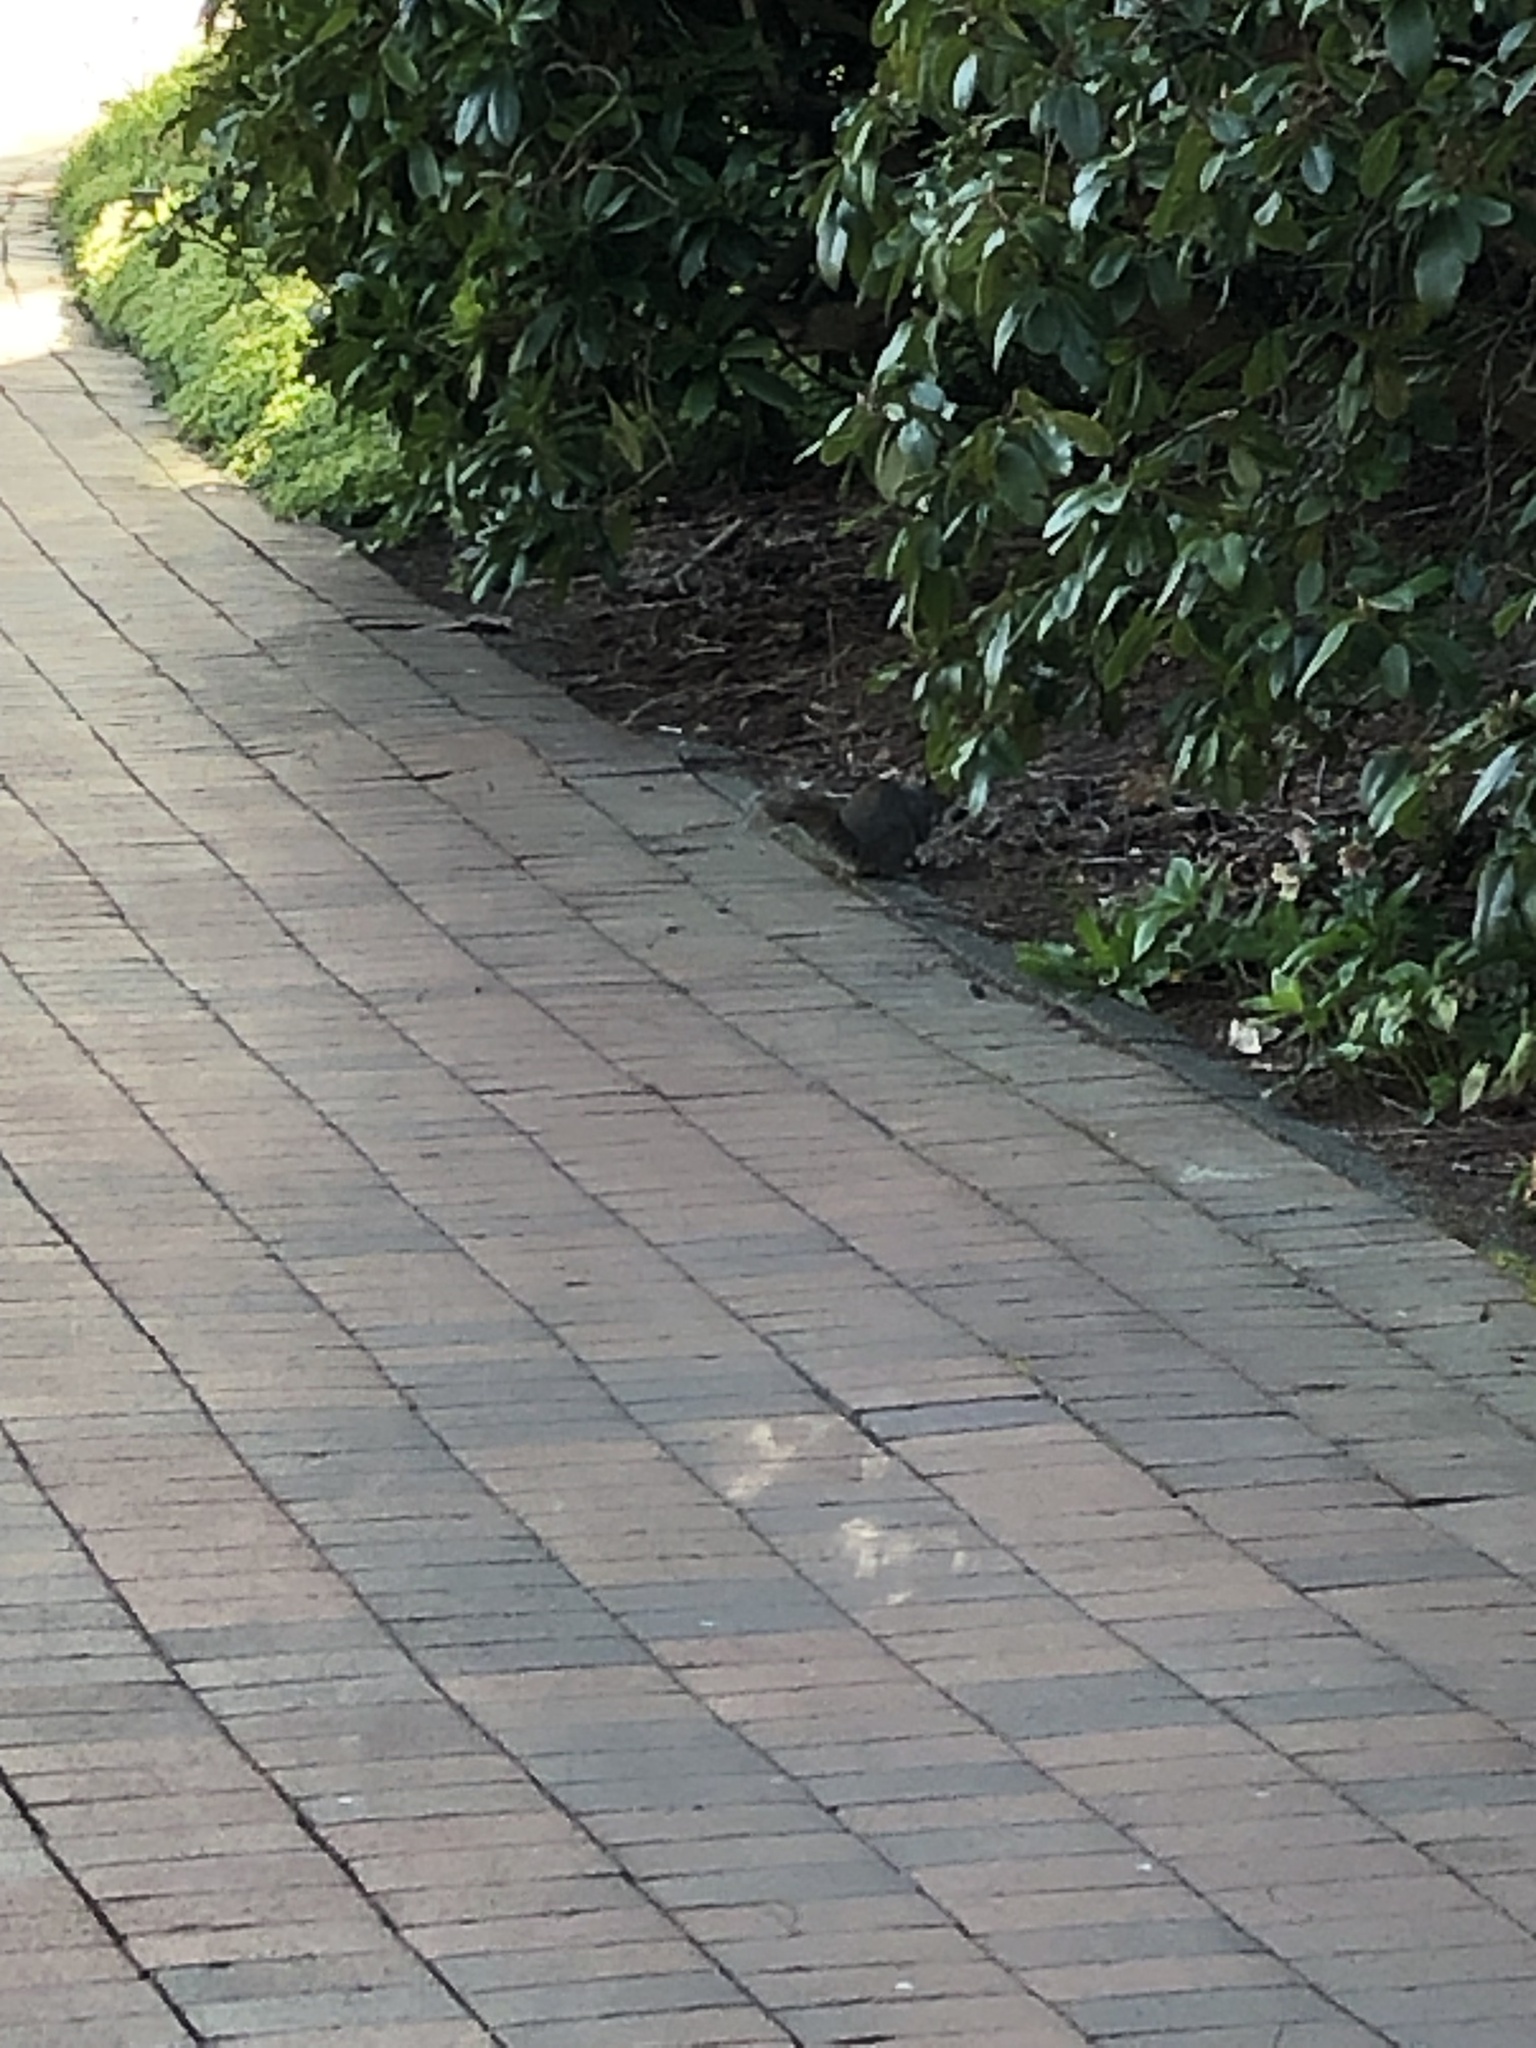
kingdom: Animalia
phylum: Chordata
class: Mammalia
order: Rodentia
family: Sciuridae
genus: Sciurus
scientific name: Sciurus carolinensis
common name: Eastern gray squirrel
